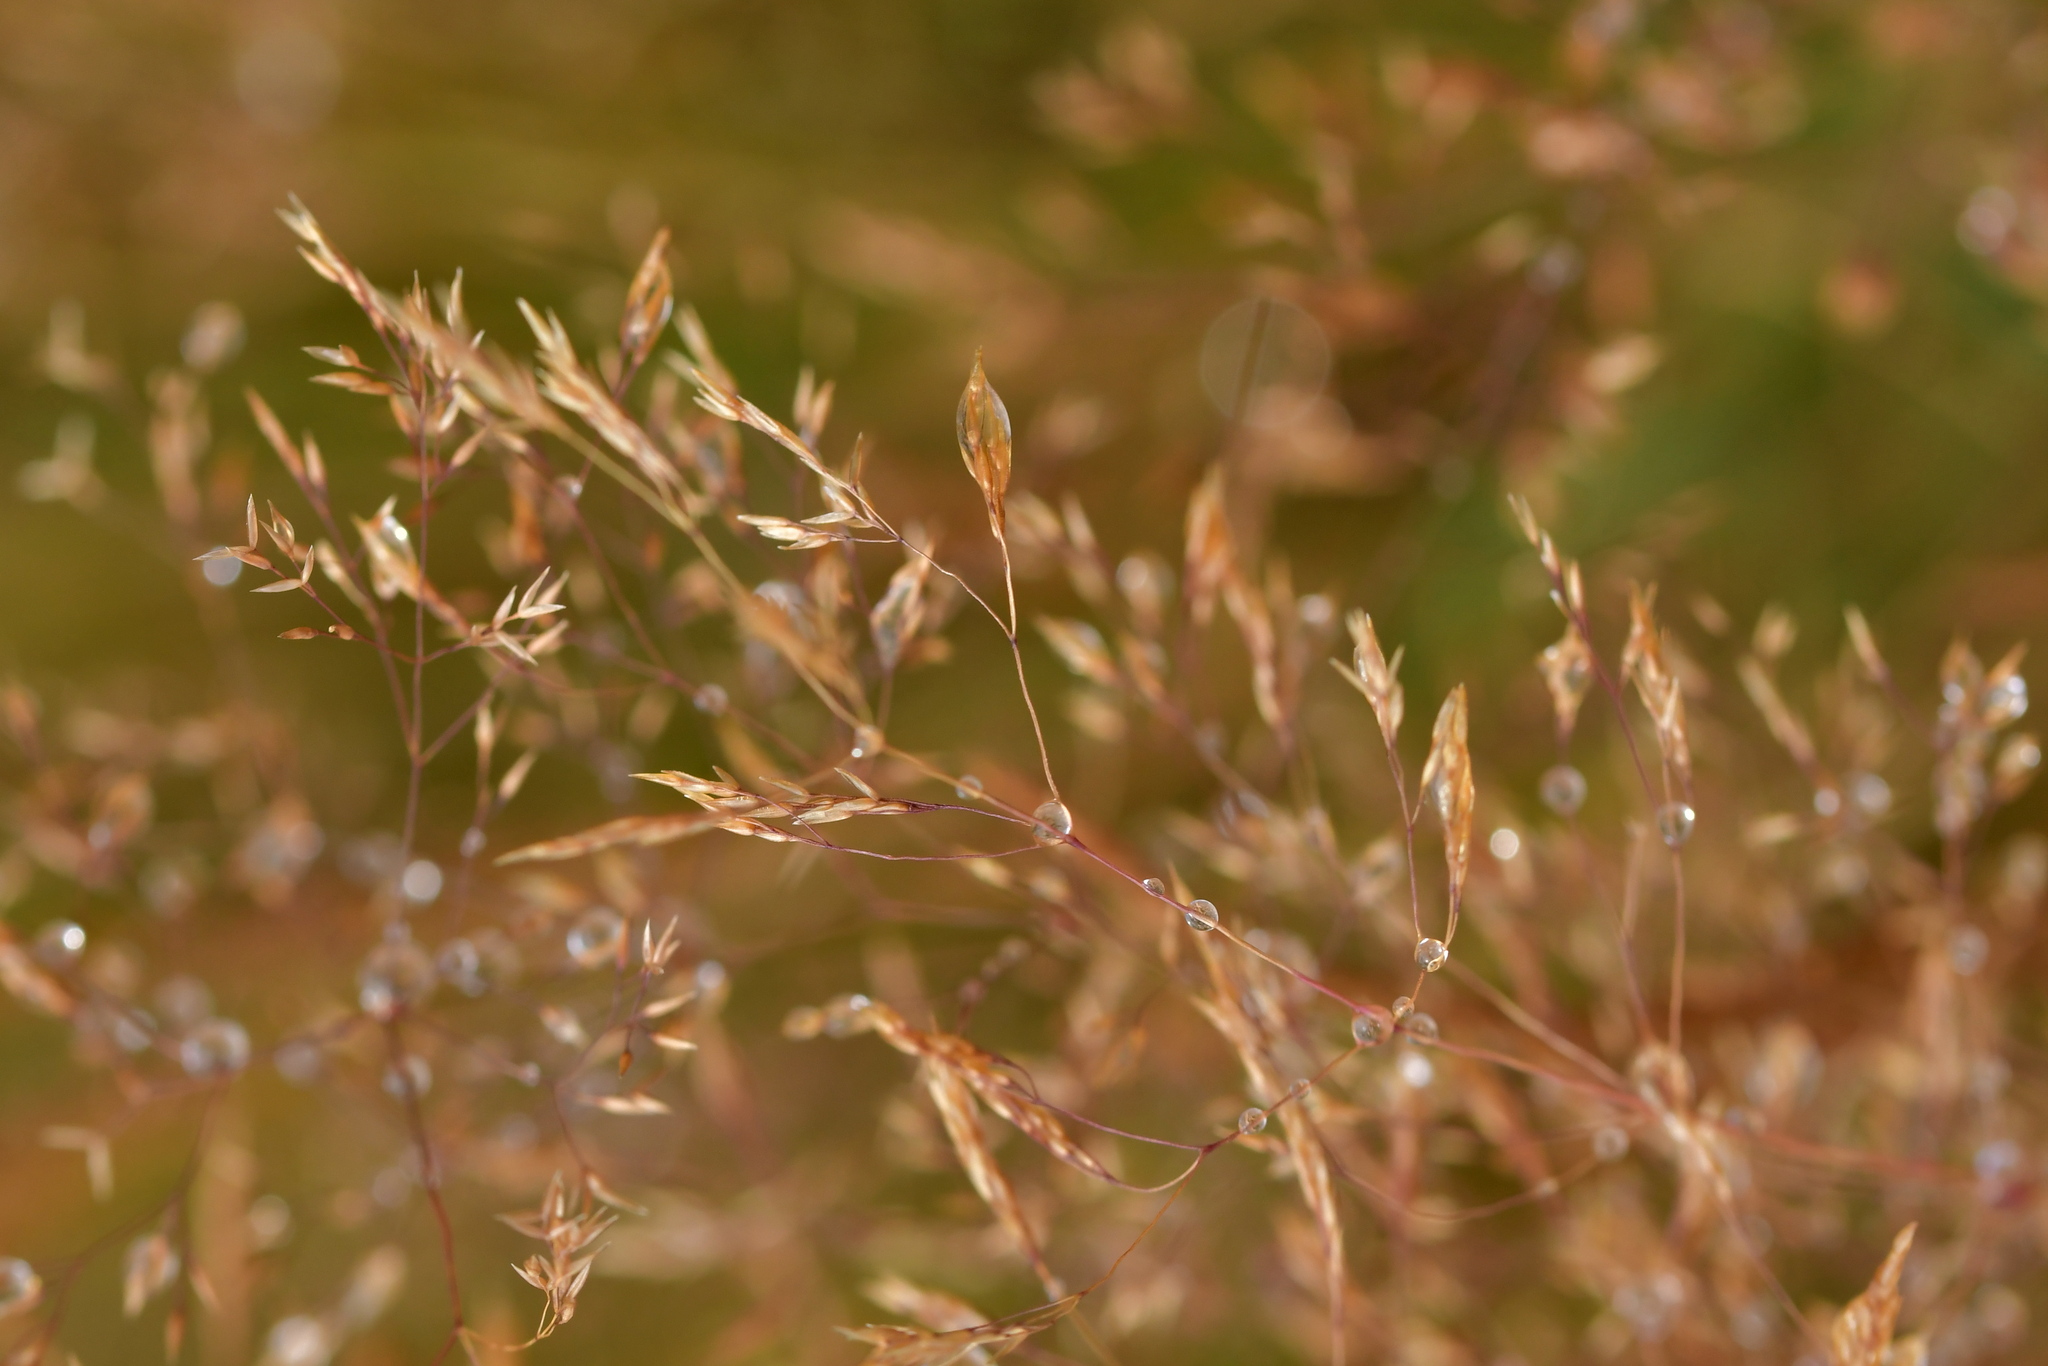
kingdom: Plantae
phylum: Tracheophyta
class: Liliopsida
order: Poales
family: Poaceae
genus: Agrostis
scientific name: Agrostis capillaris
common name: Colonial bentgrass
